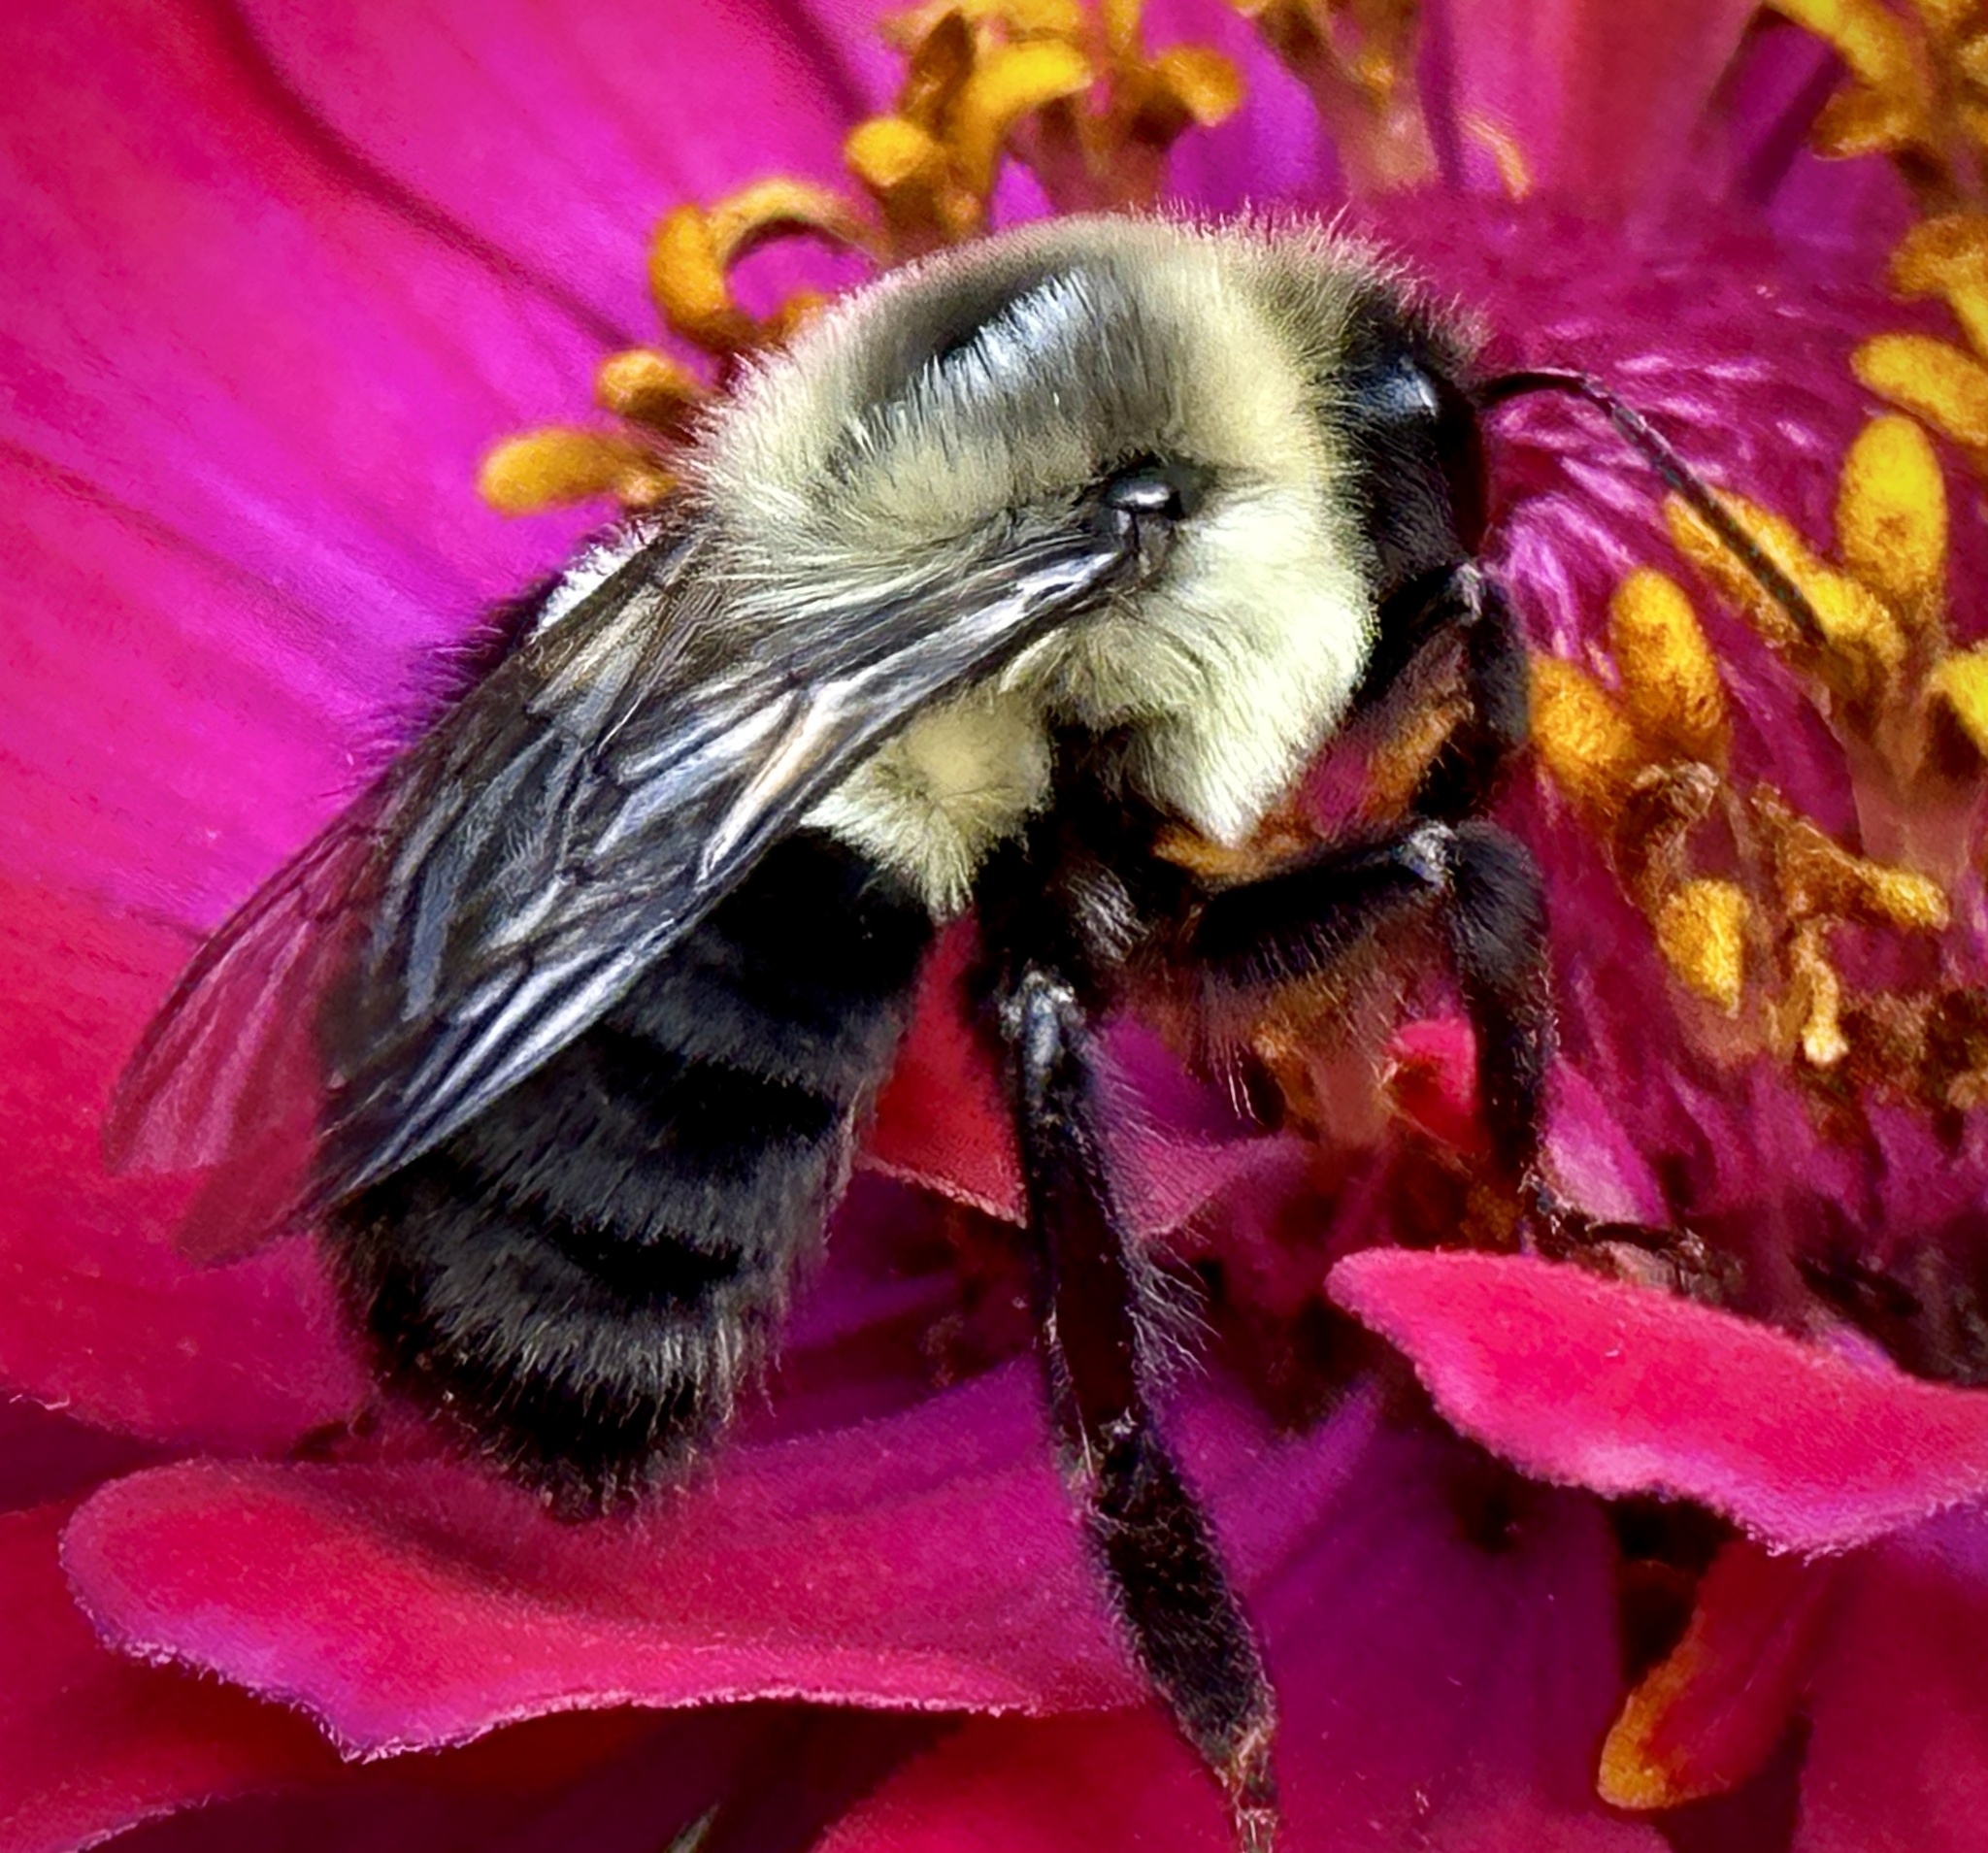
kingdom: Animalia
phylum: Arthropoda
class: Insecta
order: Hymenoptera
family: Apidae
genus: Bombus
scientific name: Bombus impatiens
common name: Common eastern bumble bee
